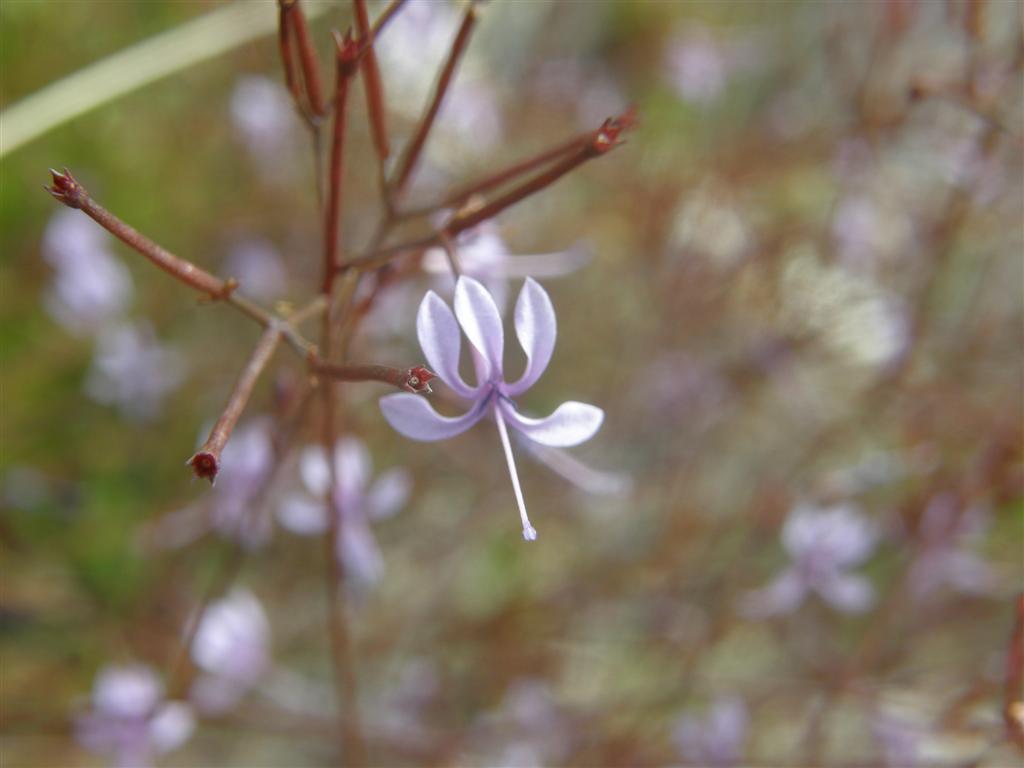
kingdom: Plantae
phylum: Tracheophyta
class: Magnoliopsida
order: Asterales
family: Campanulaceae
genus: Prismatocarpus
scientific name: Prismatocarpus diffusus
